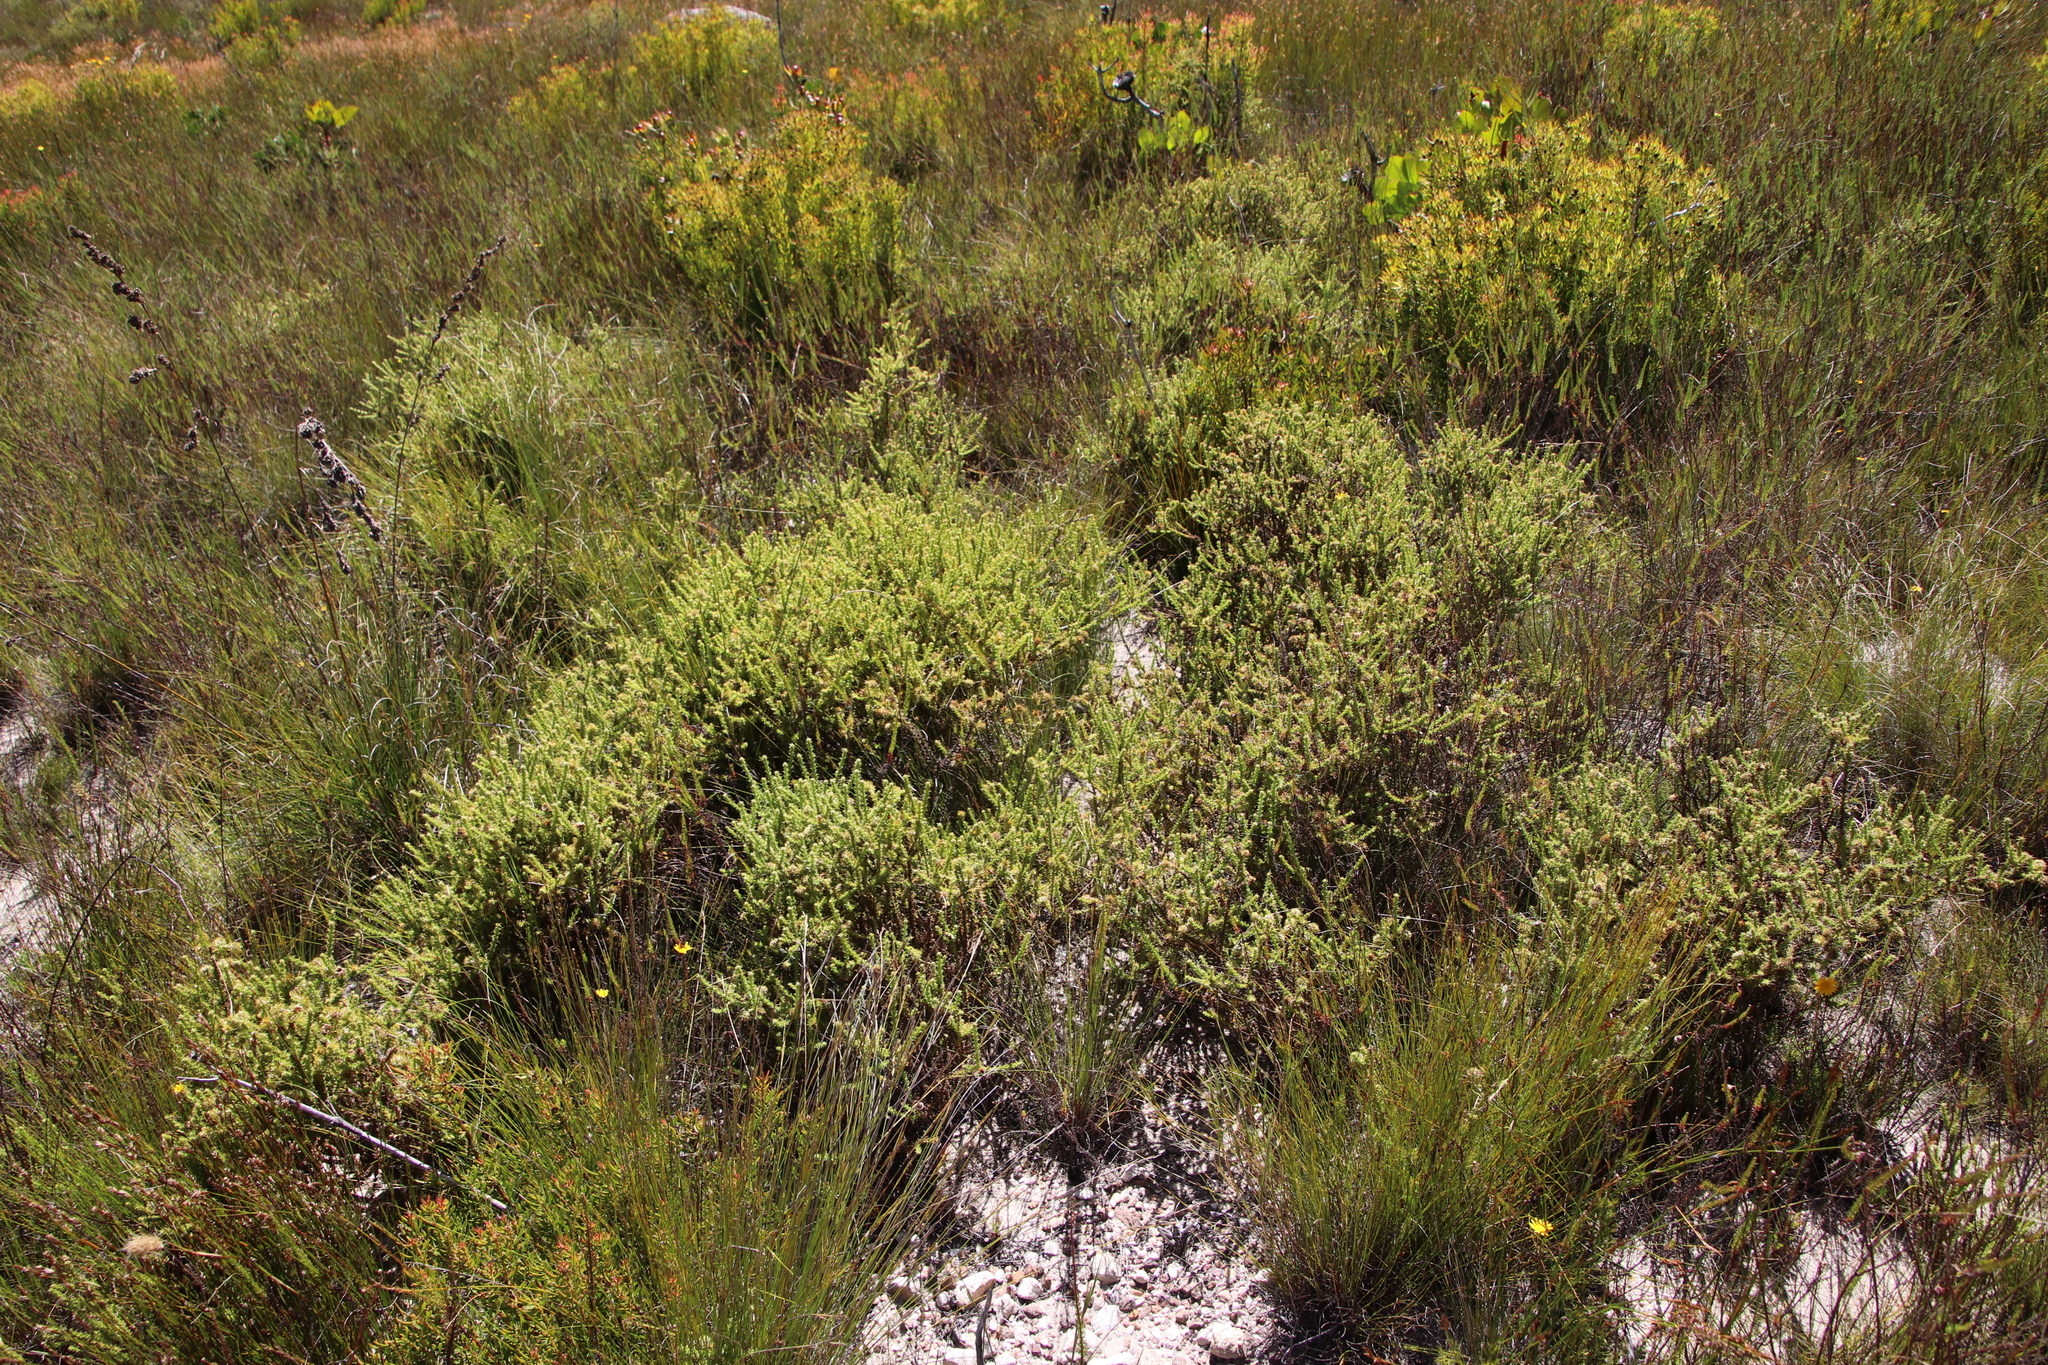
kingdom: Plantae
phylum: Tracheophyta
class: Magnoliopsida
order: Asterales
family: Asteraceae
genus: Cullumia
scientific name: Cullumia reticulata
